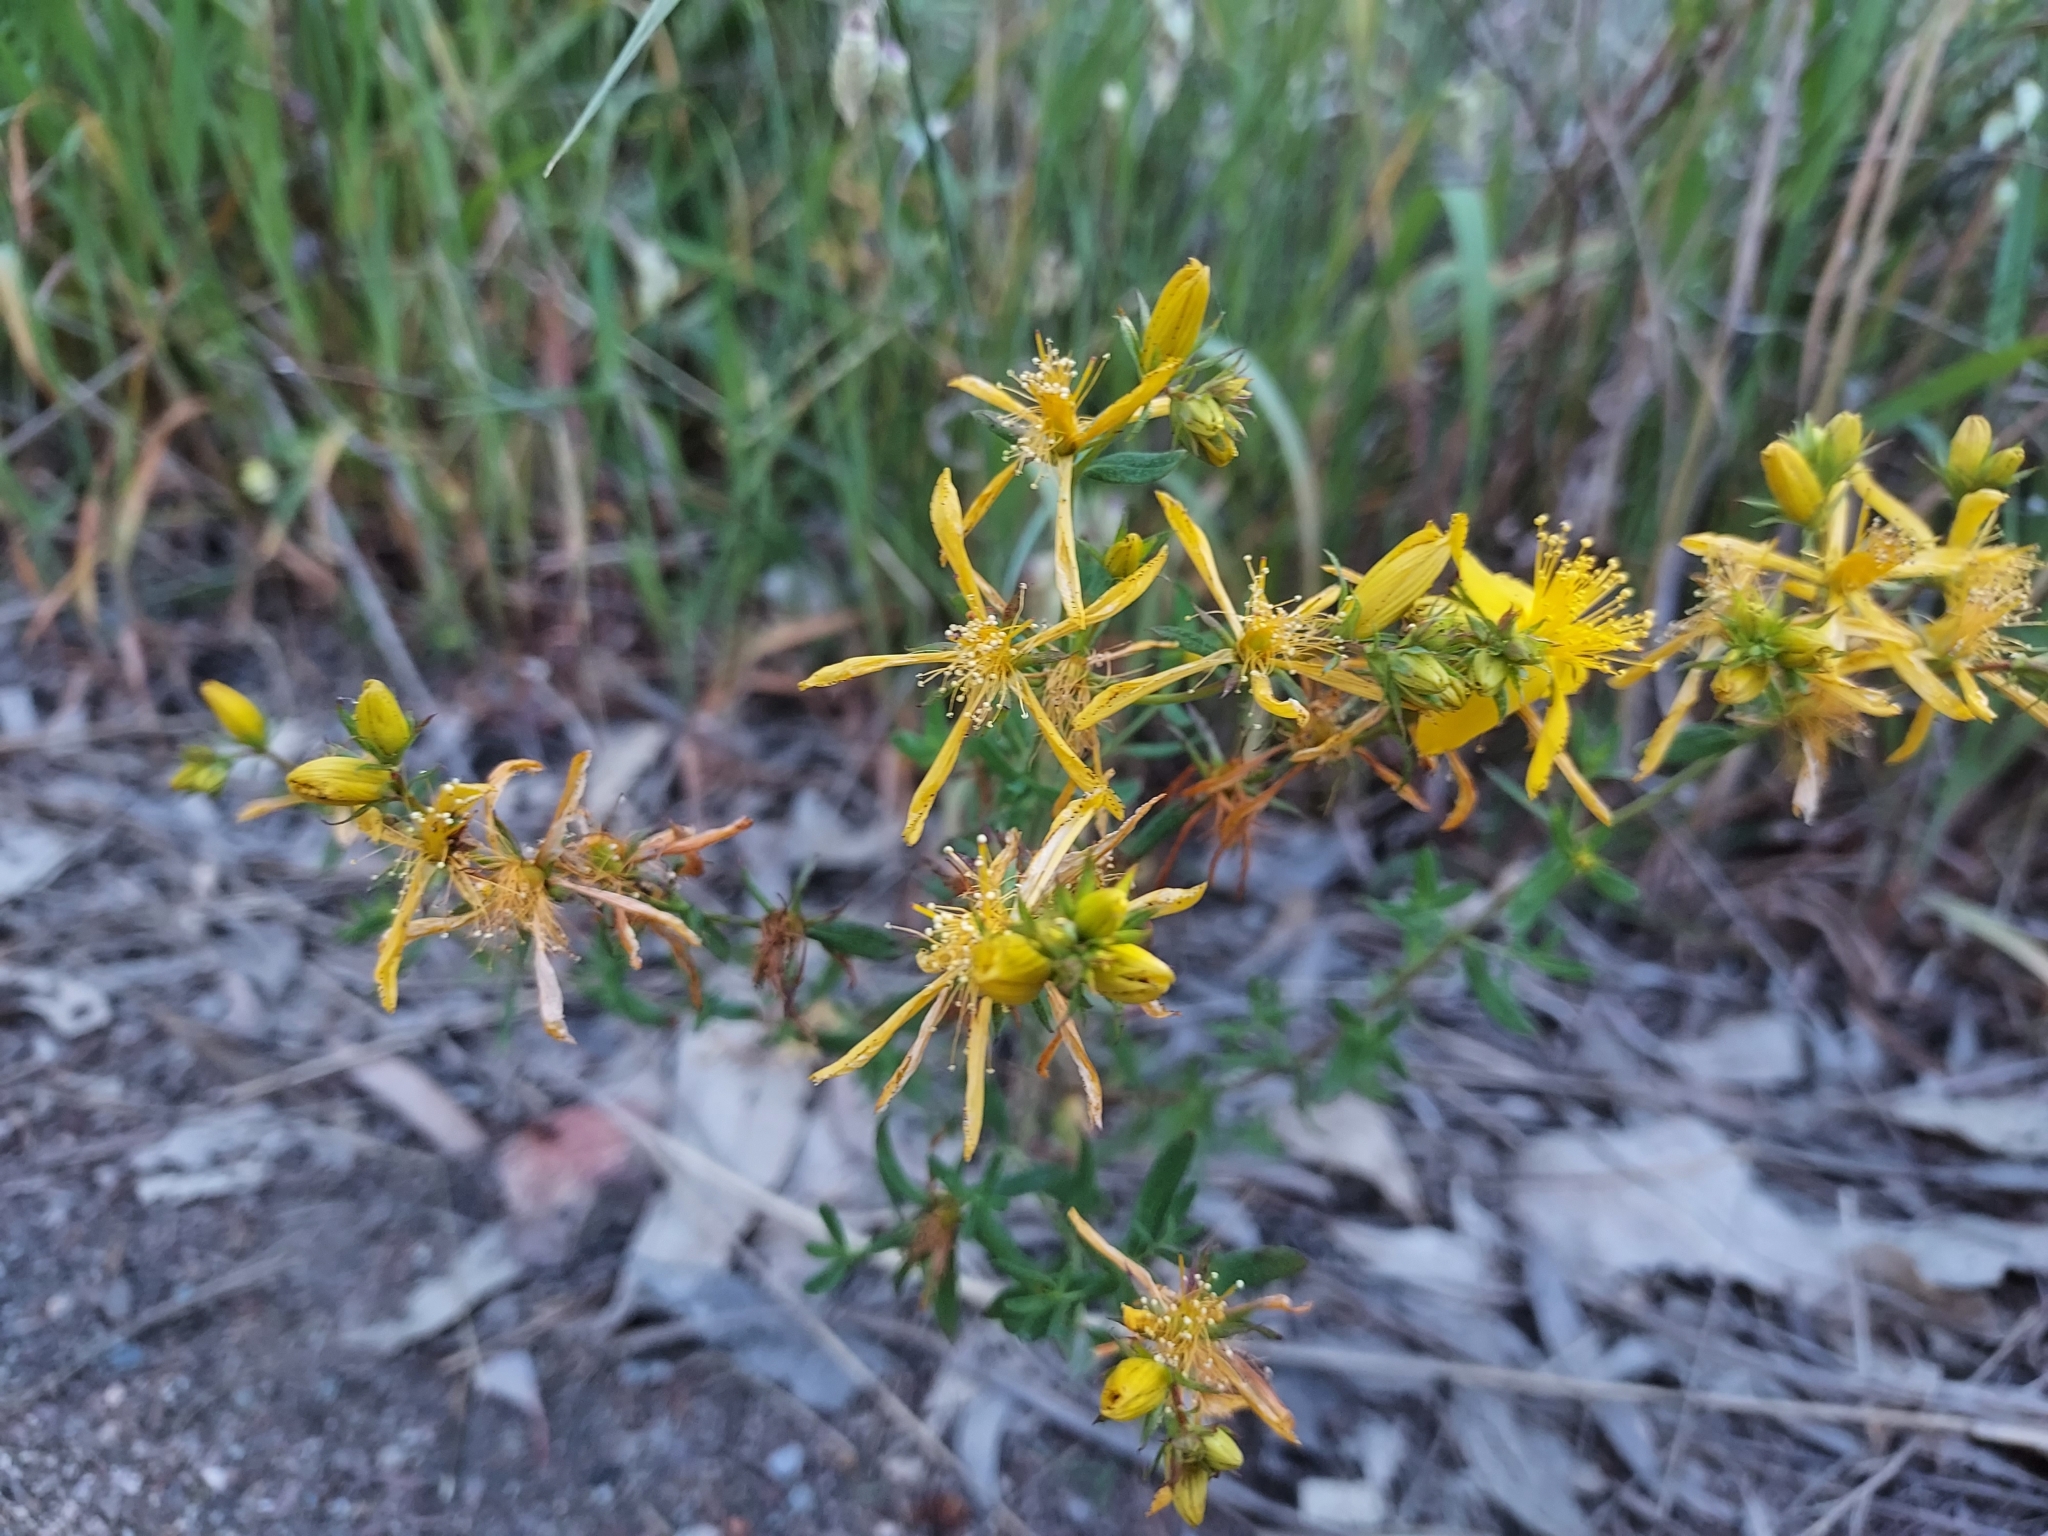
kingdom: Plantae
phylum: Tracheophyta
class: Magnoliopsida
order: Malpighiales
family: Hypericaceae
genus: Hypericum
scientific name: Hypericum perforatum
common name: Common st. johnswort
